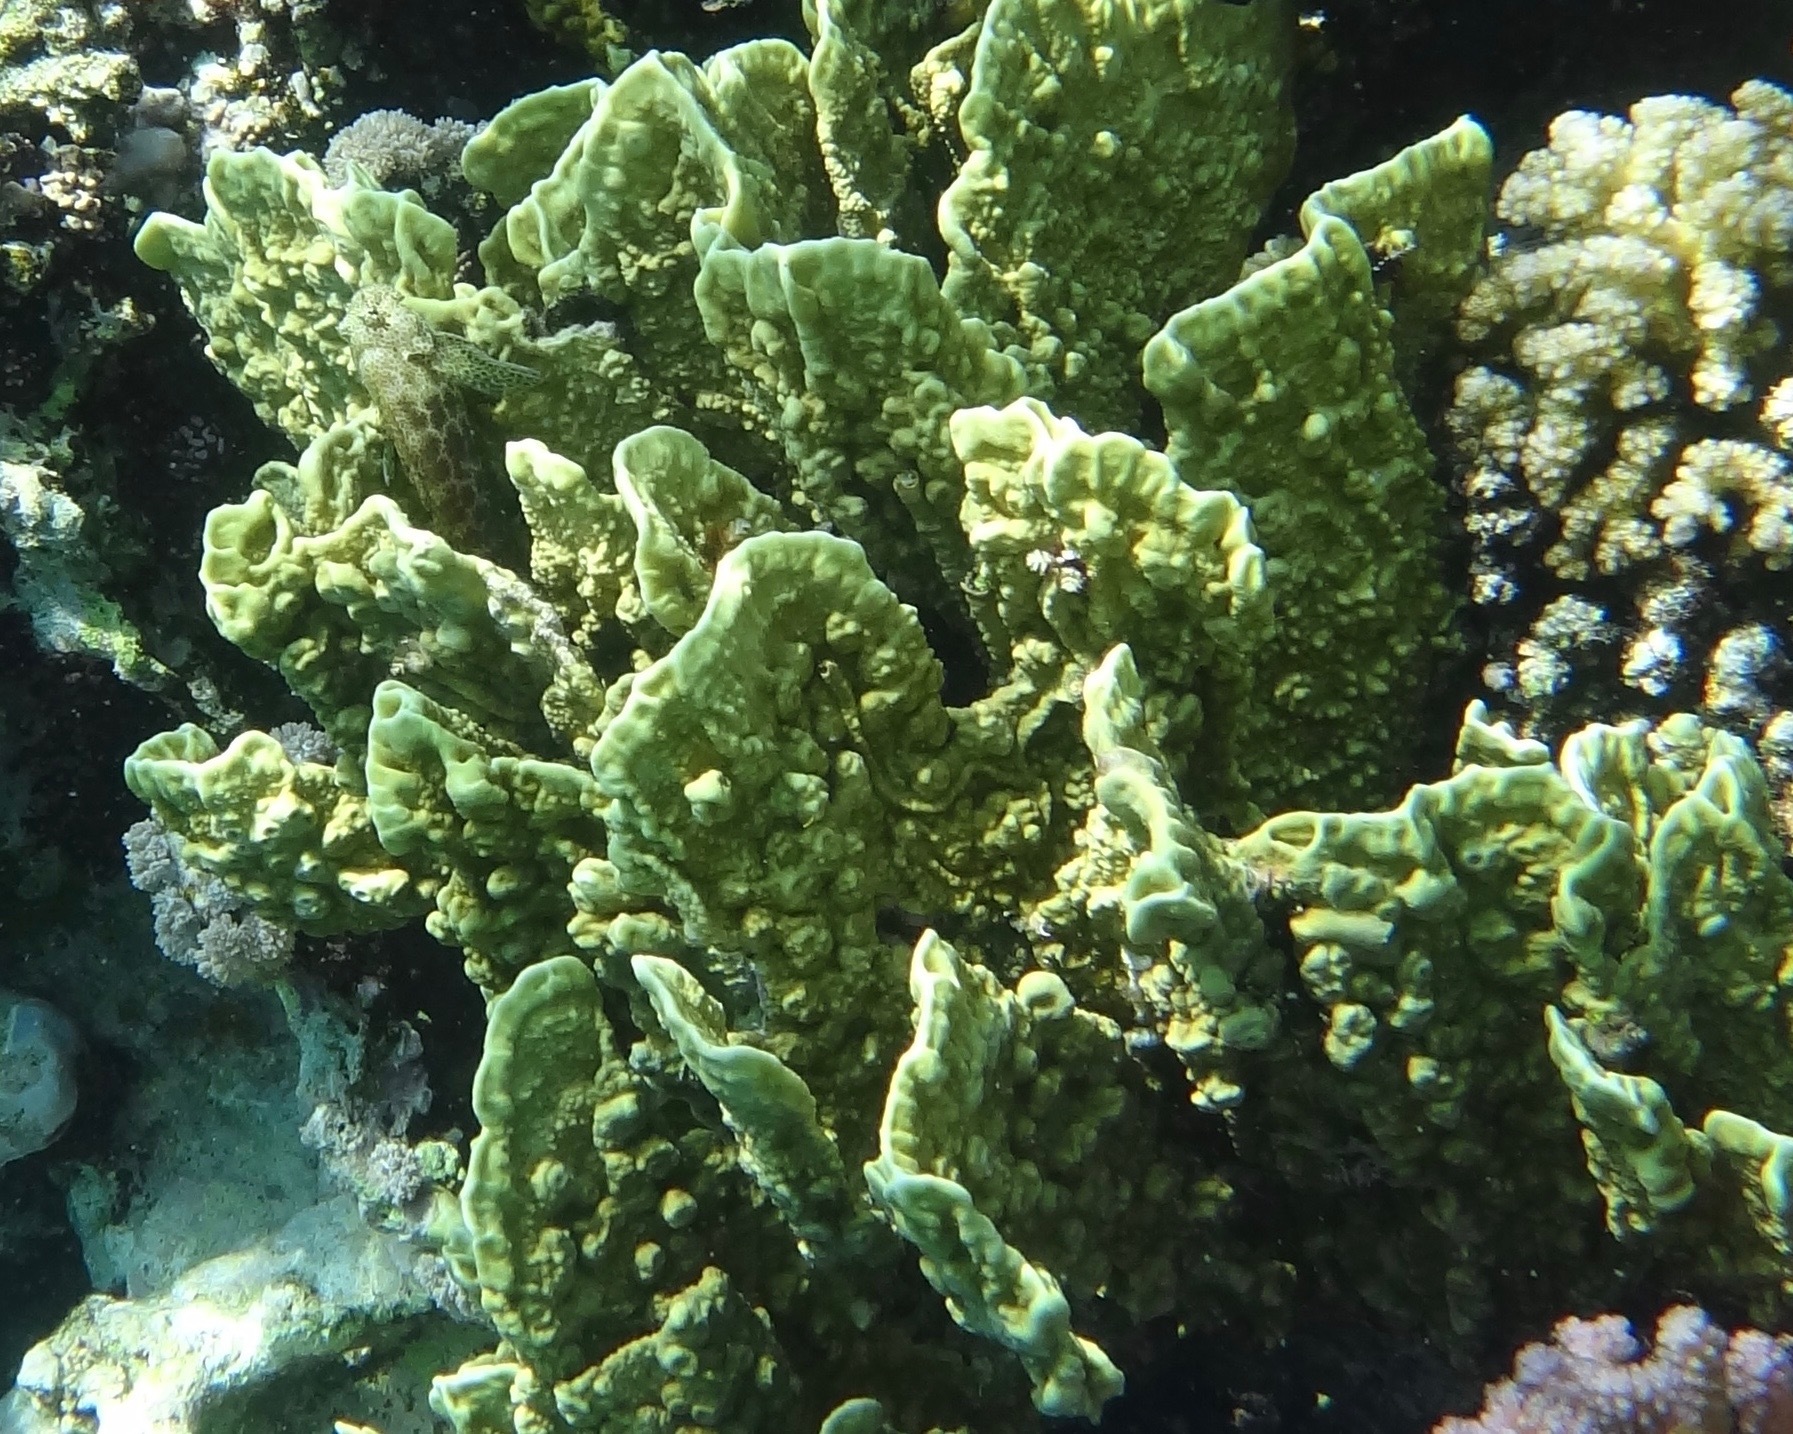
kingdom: Animalia
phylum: Cnidaria
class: Hydrozoa
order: Anthoathecata
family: Milleporidae
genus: Millepora
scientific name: Millepora platyphylla
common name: Sheet fire coral
